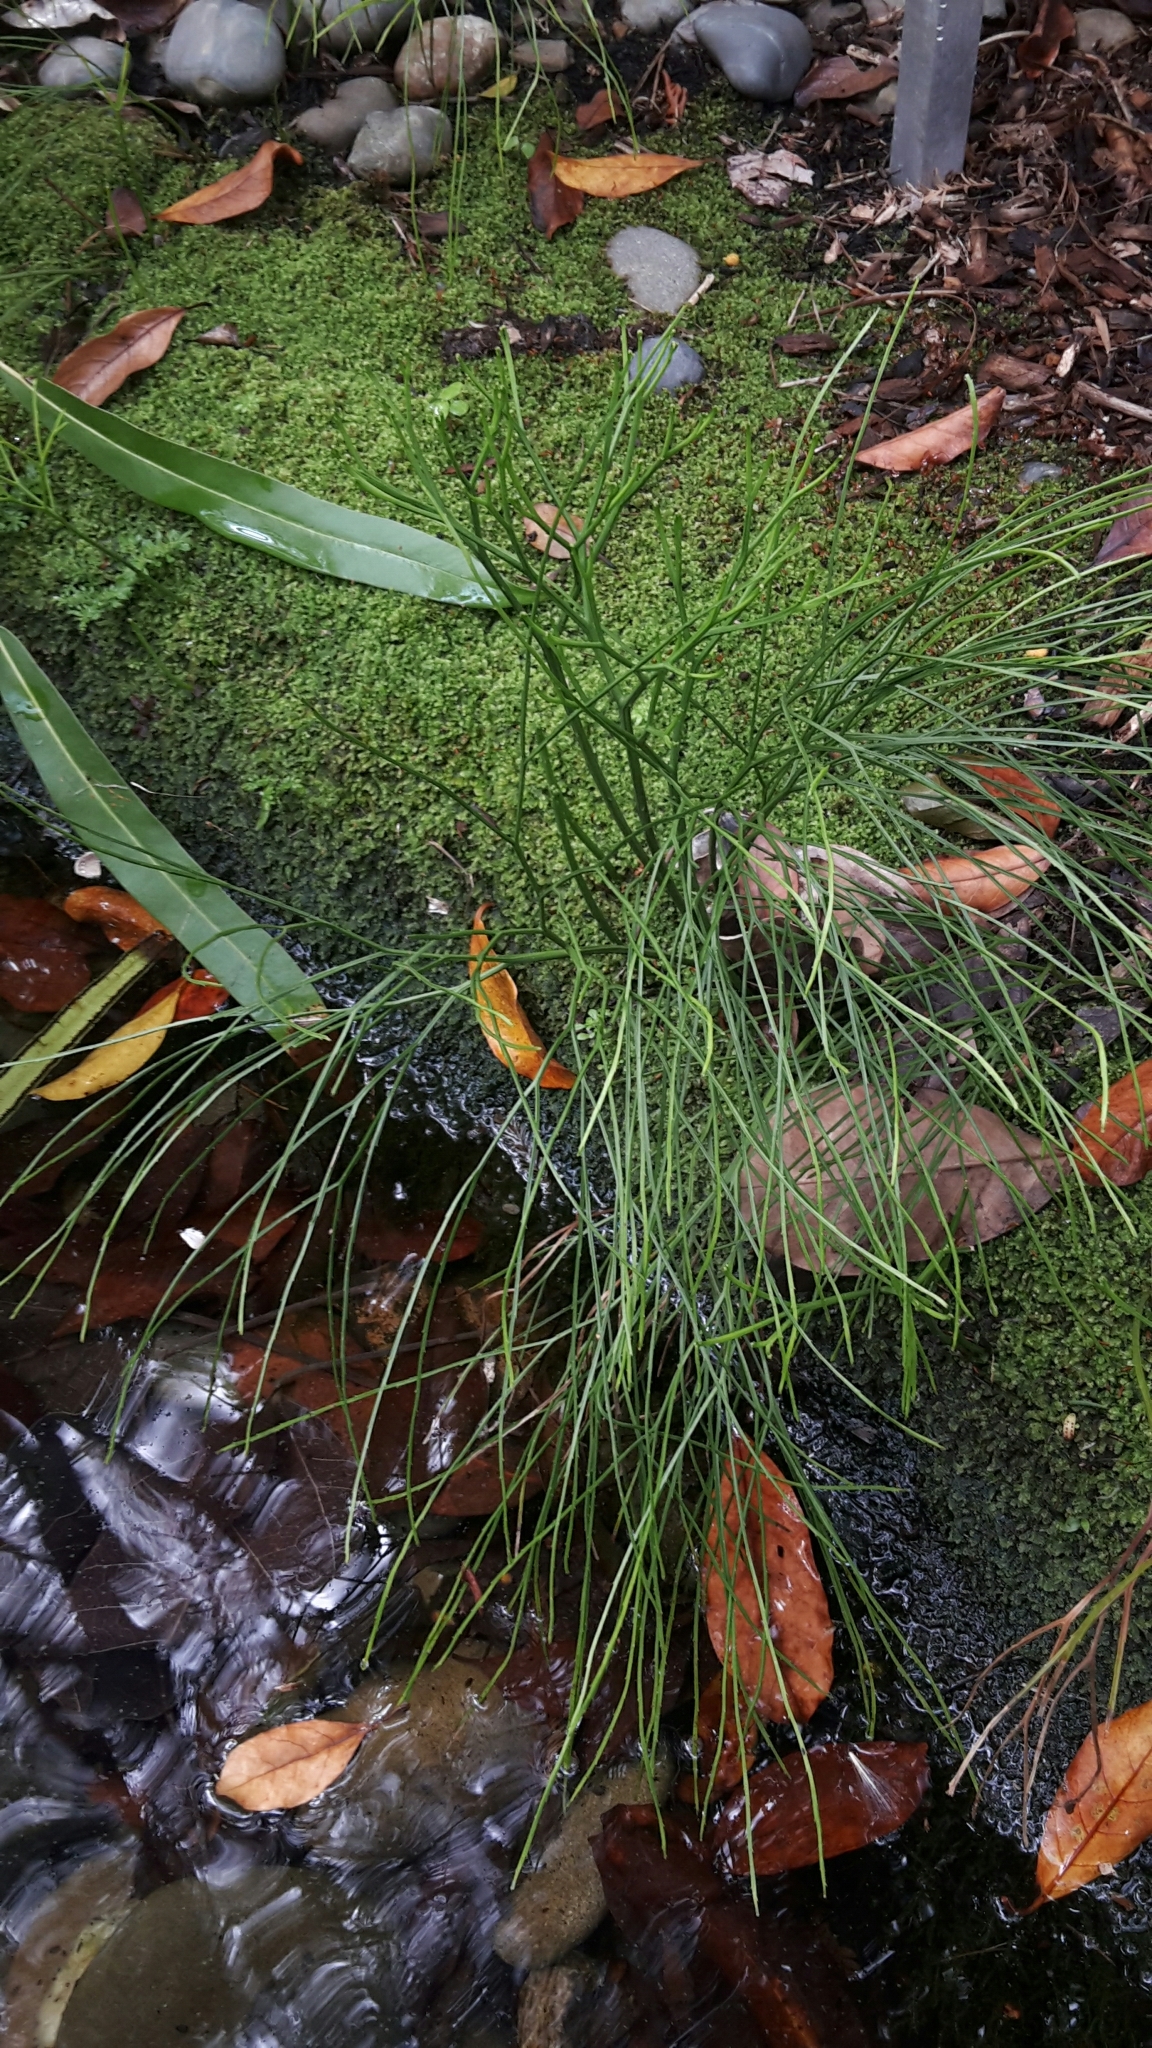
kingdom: Plantae
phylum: Tracheophyta
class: Polypodiopsida
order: Psilotales
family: Psilotaceae
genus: Psilotum
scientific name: Psilotum nudum
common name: Skeleton fork fern
